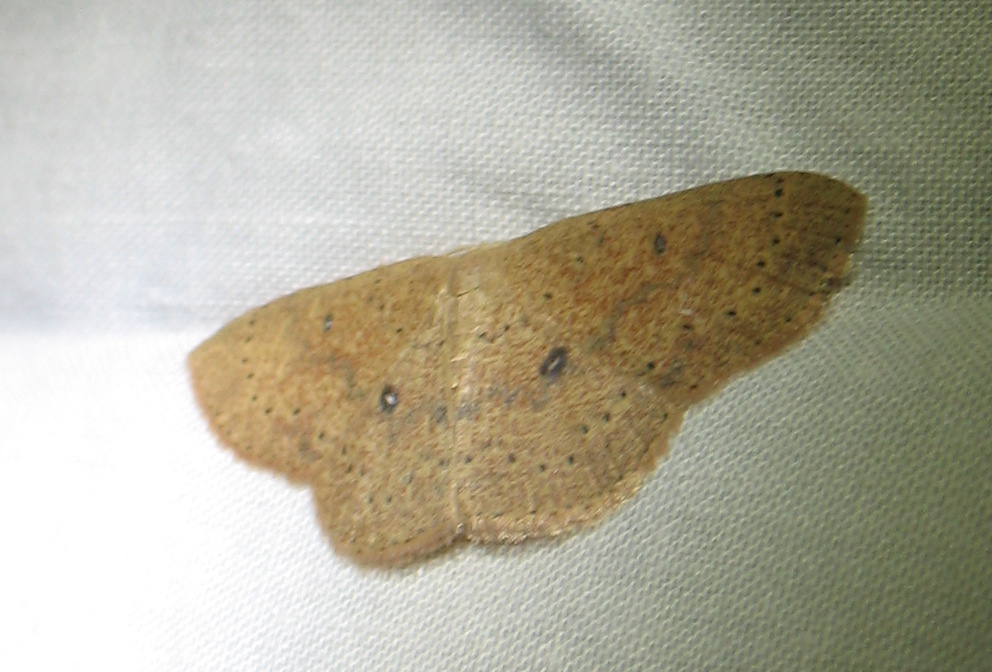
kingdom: Animalia
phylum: Arthropoda
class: Insecta
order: Lepidoptera
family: Geometridae
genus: Cyclophora
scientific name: Cyclophora packardi
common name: Packard's wave
